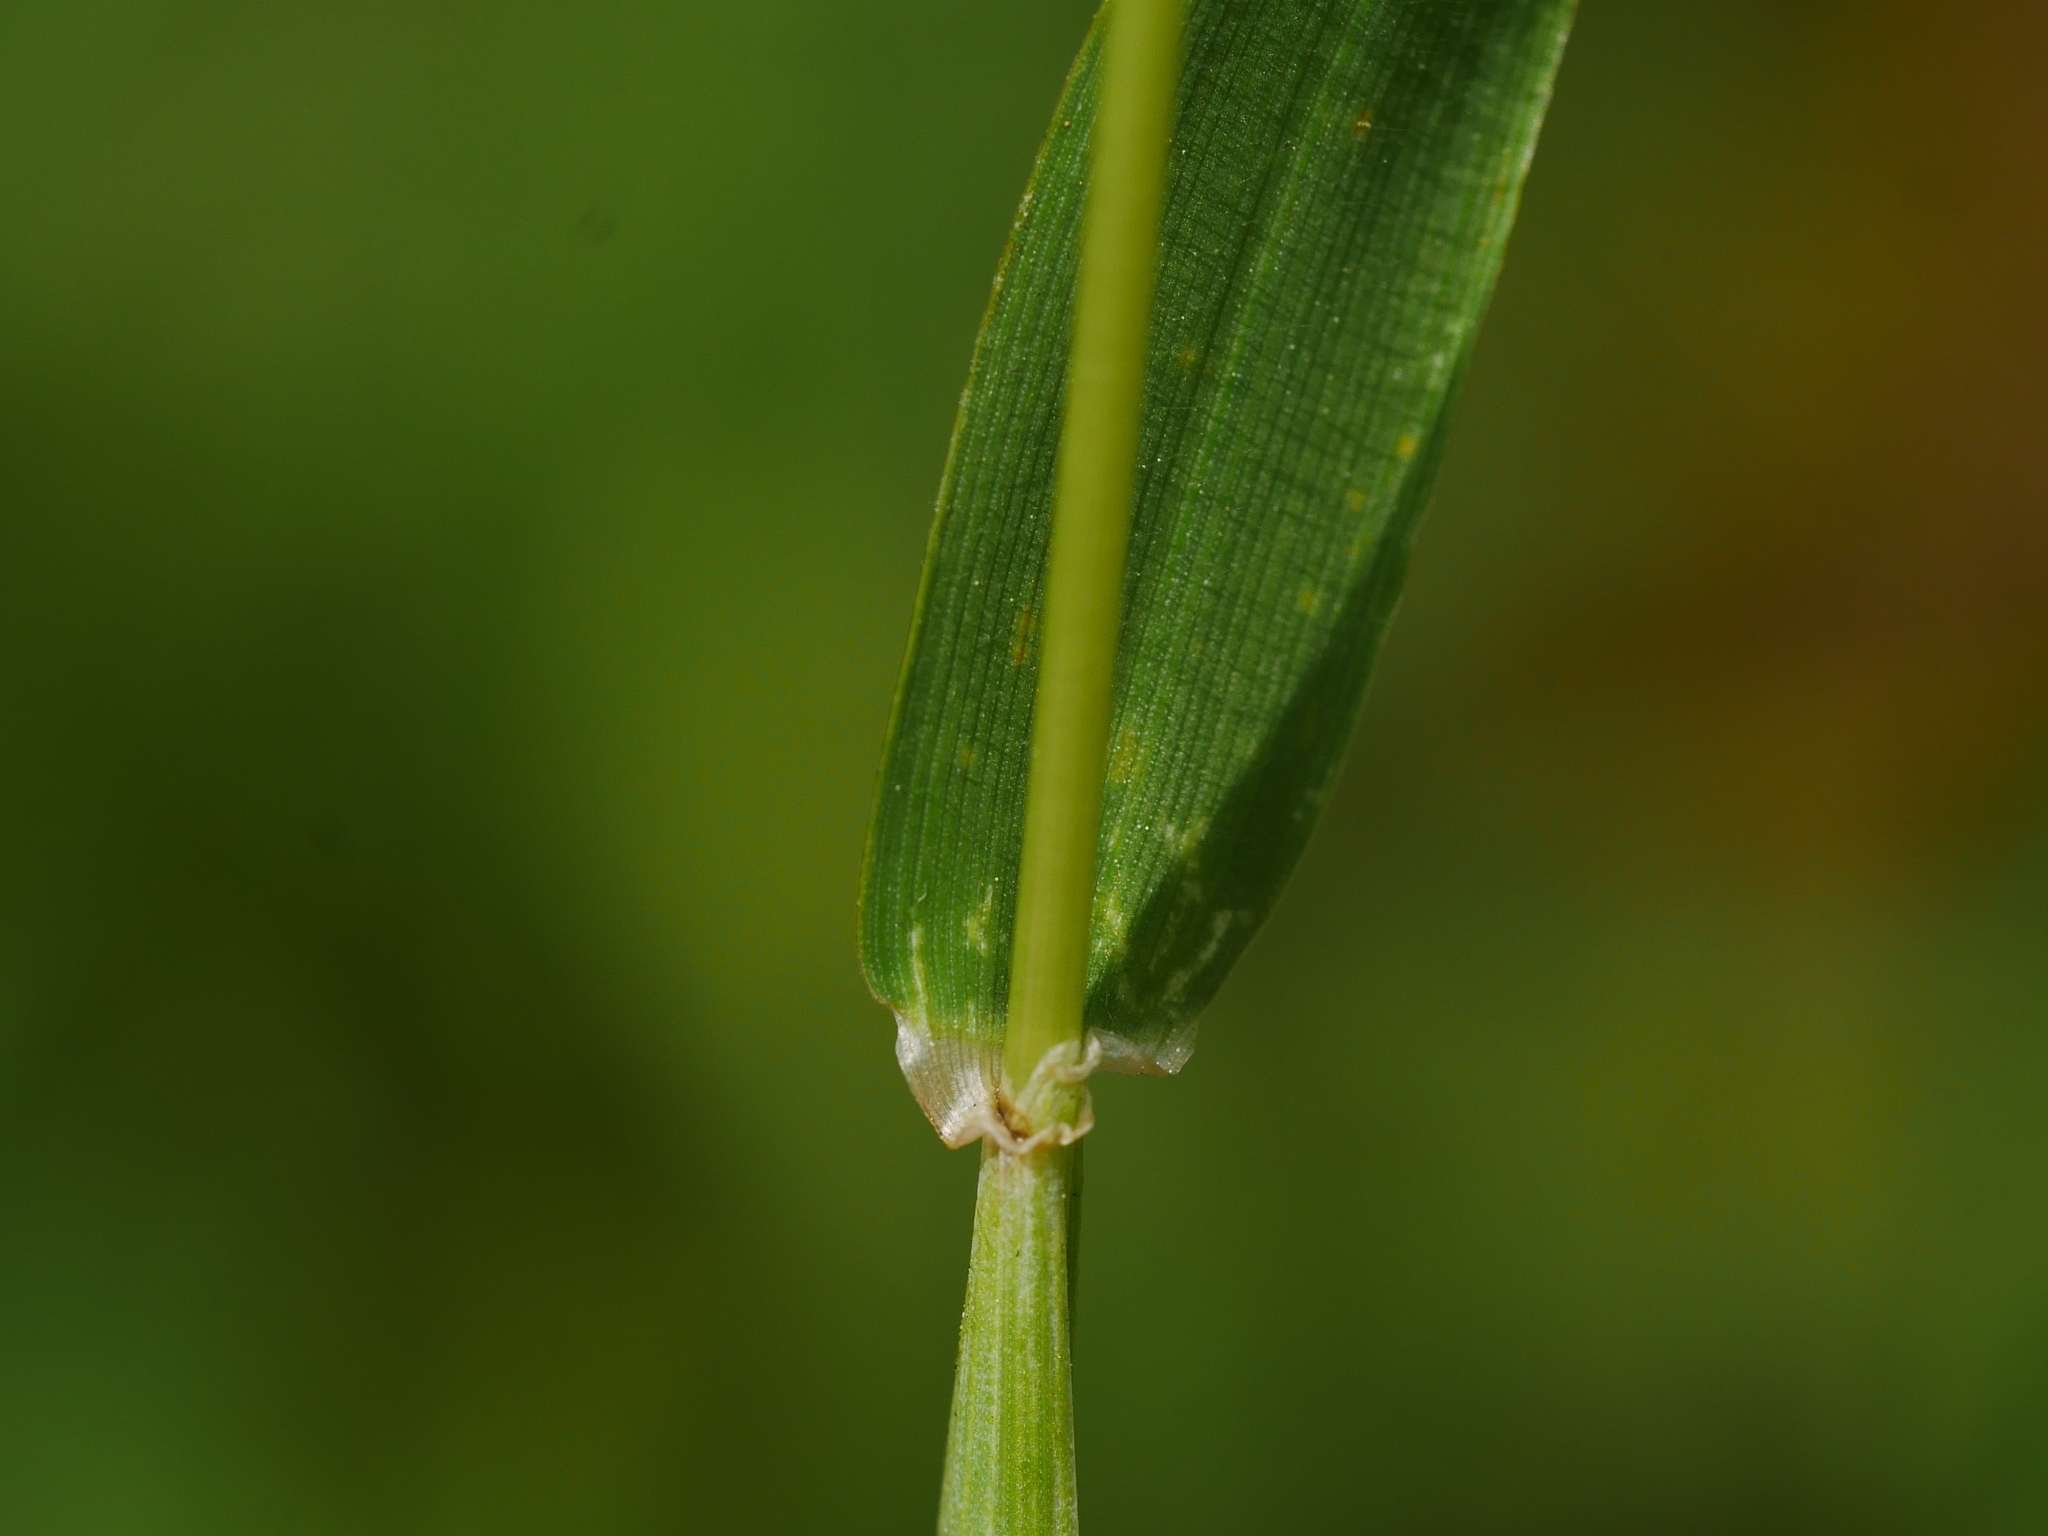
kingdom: Plantae
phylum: Tracheophyta
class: Liliopsida
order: Poales
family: Poaceae
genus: Hordeum
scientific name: Hordeum murinum
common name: Wall barley
